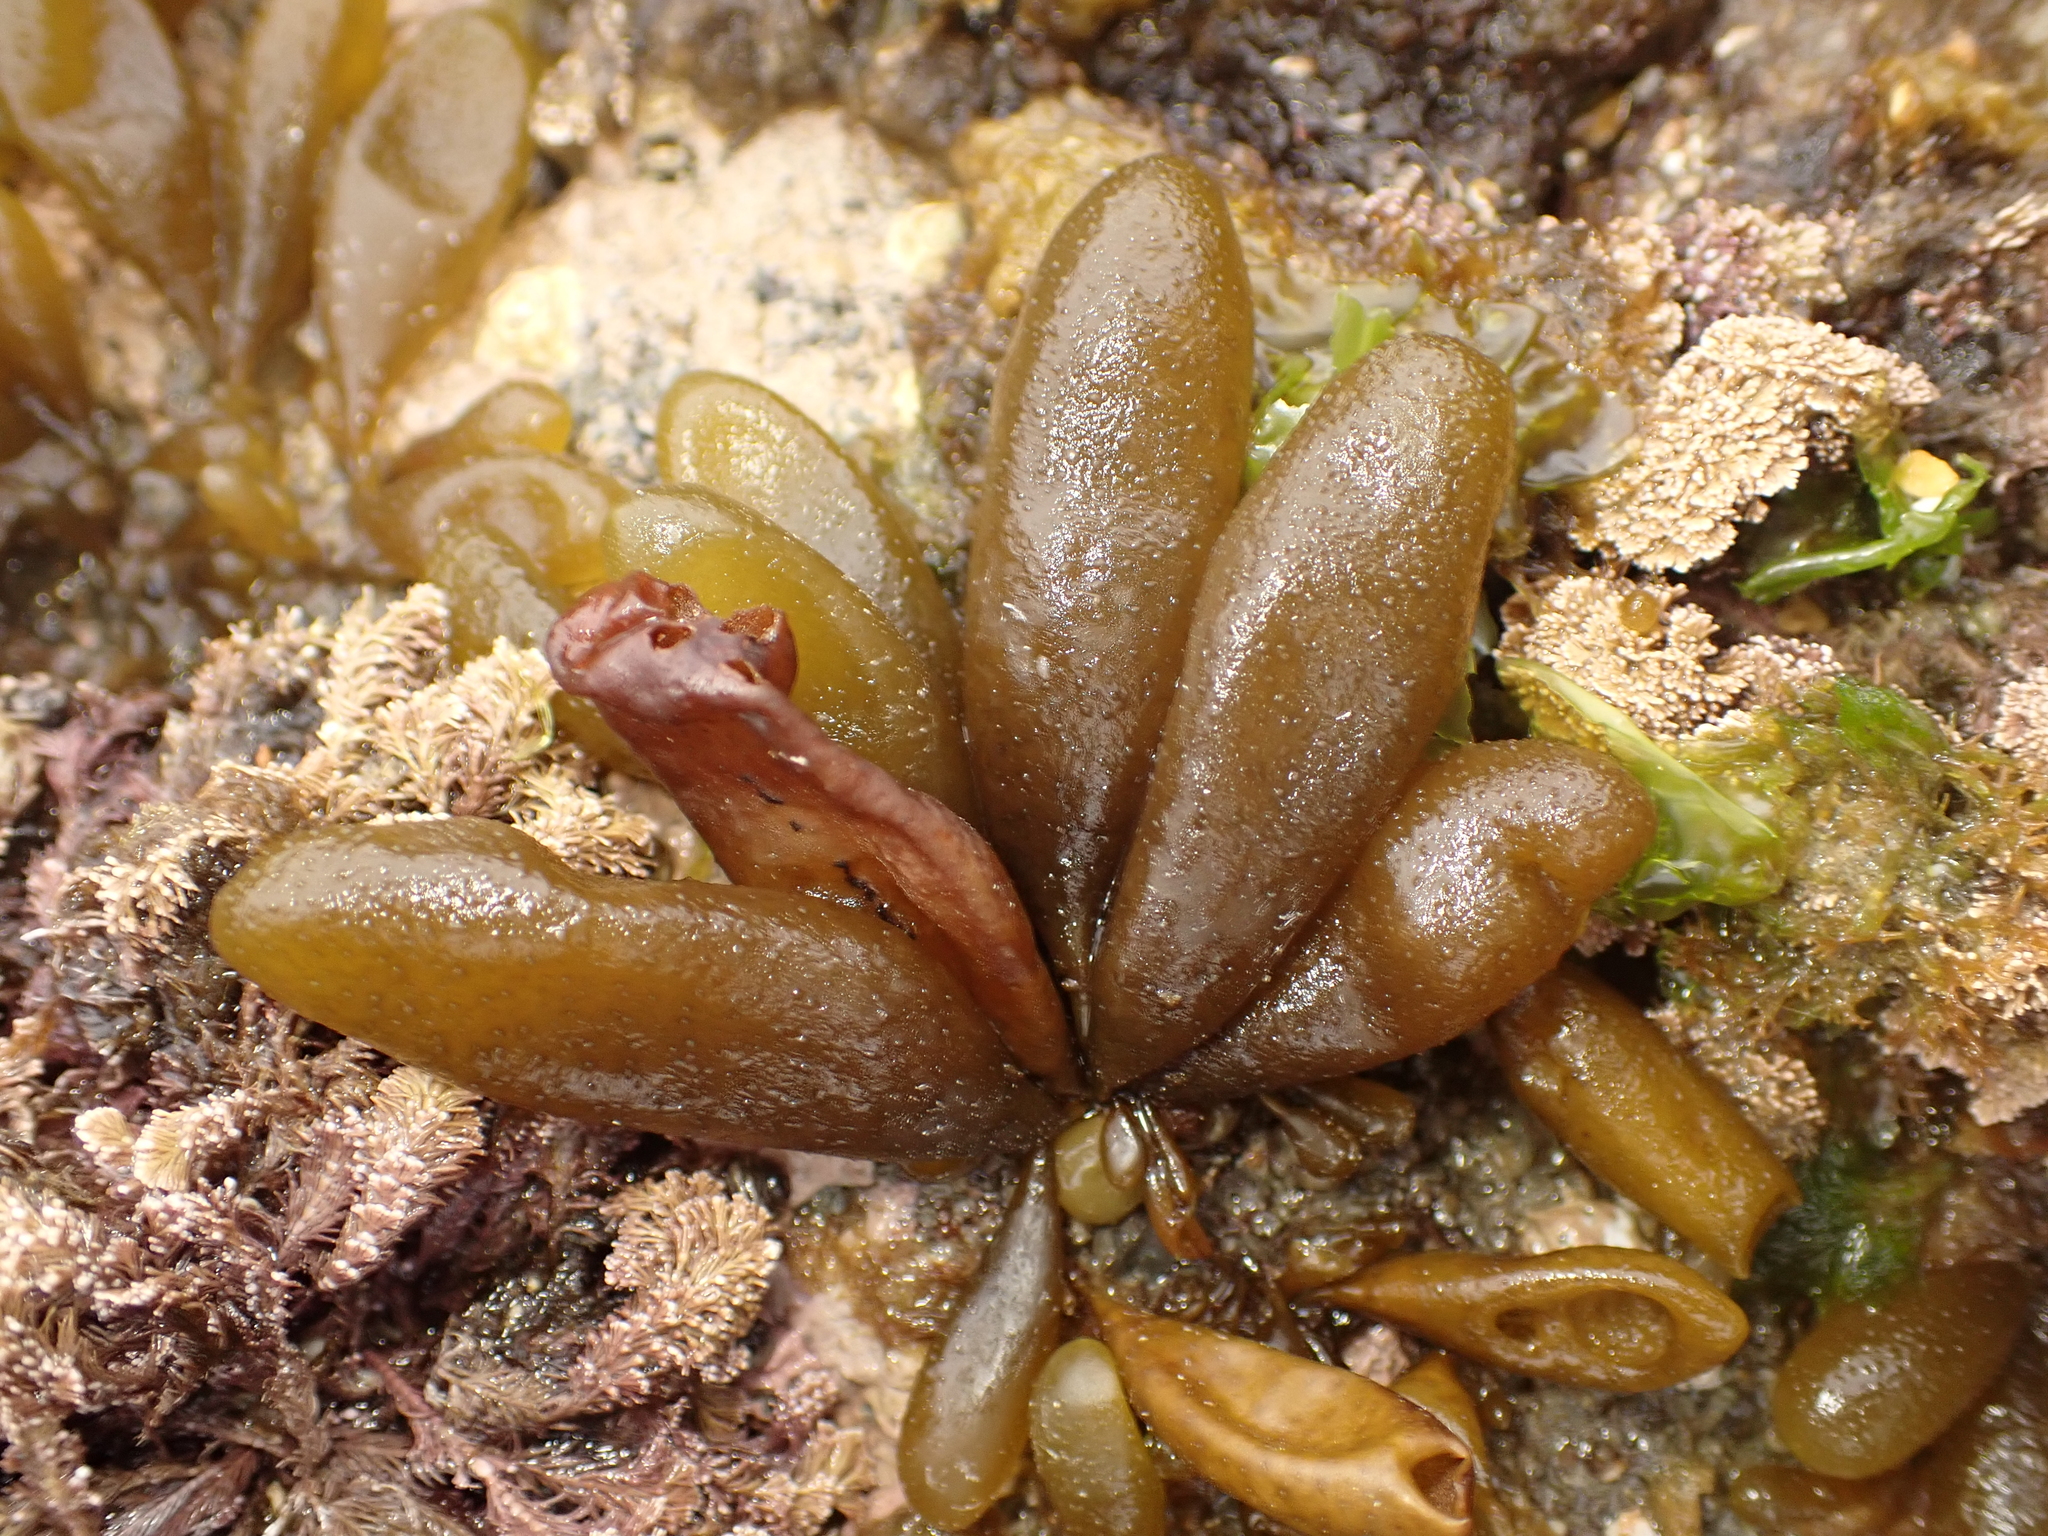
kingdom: Chromista
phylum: Ochrophyta
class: Phaeophyceae
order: Ectocarpales
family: Adenocystaceae
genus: Adenocystis
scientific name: Adenocystis utricularis
